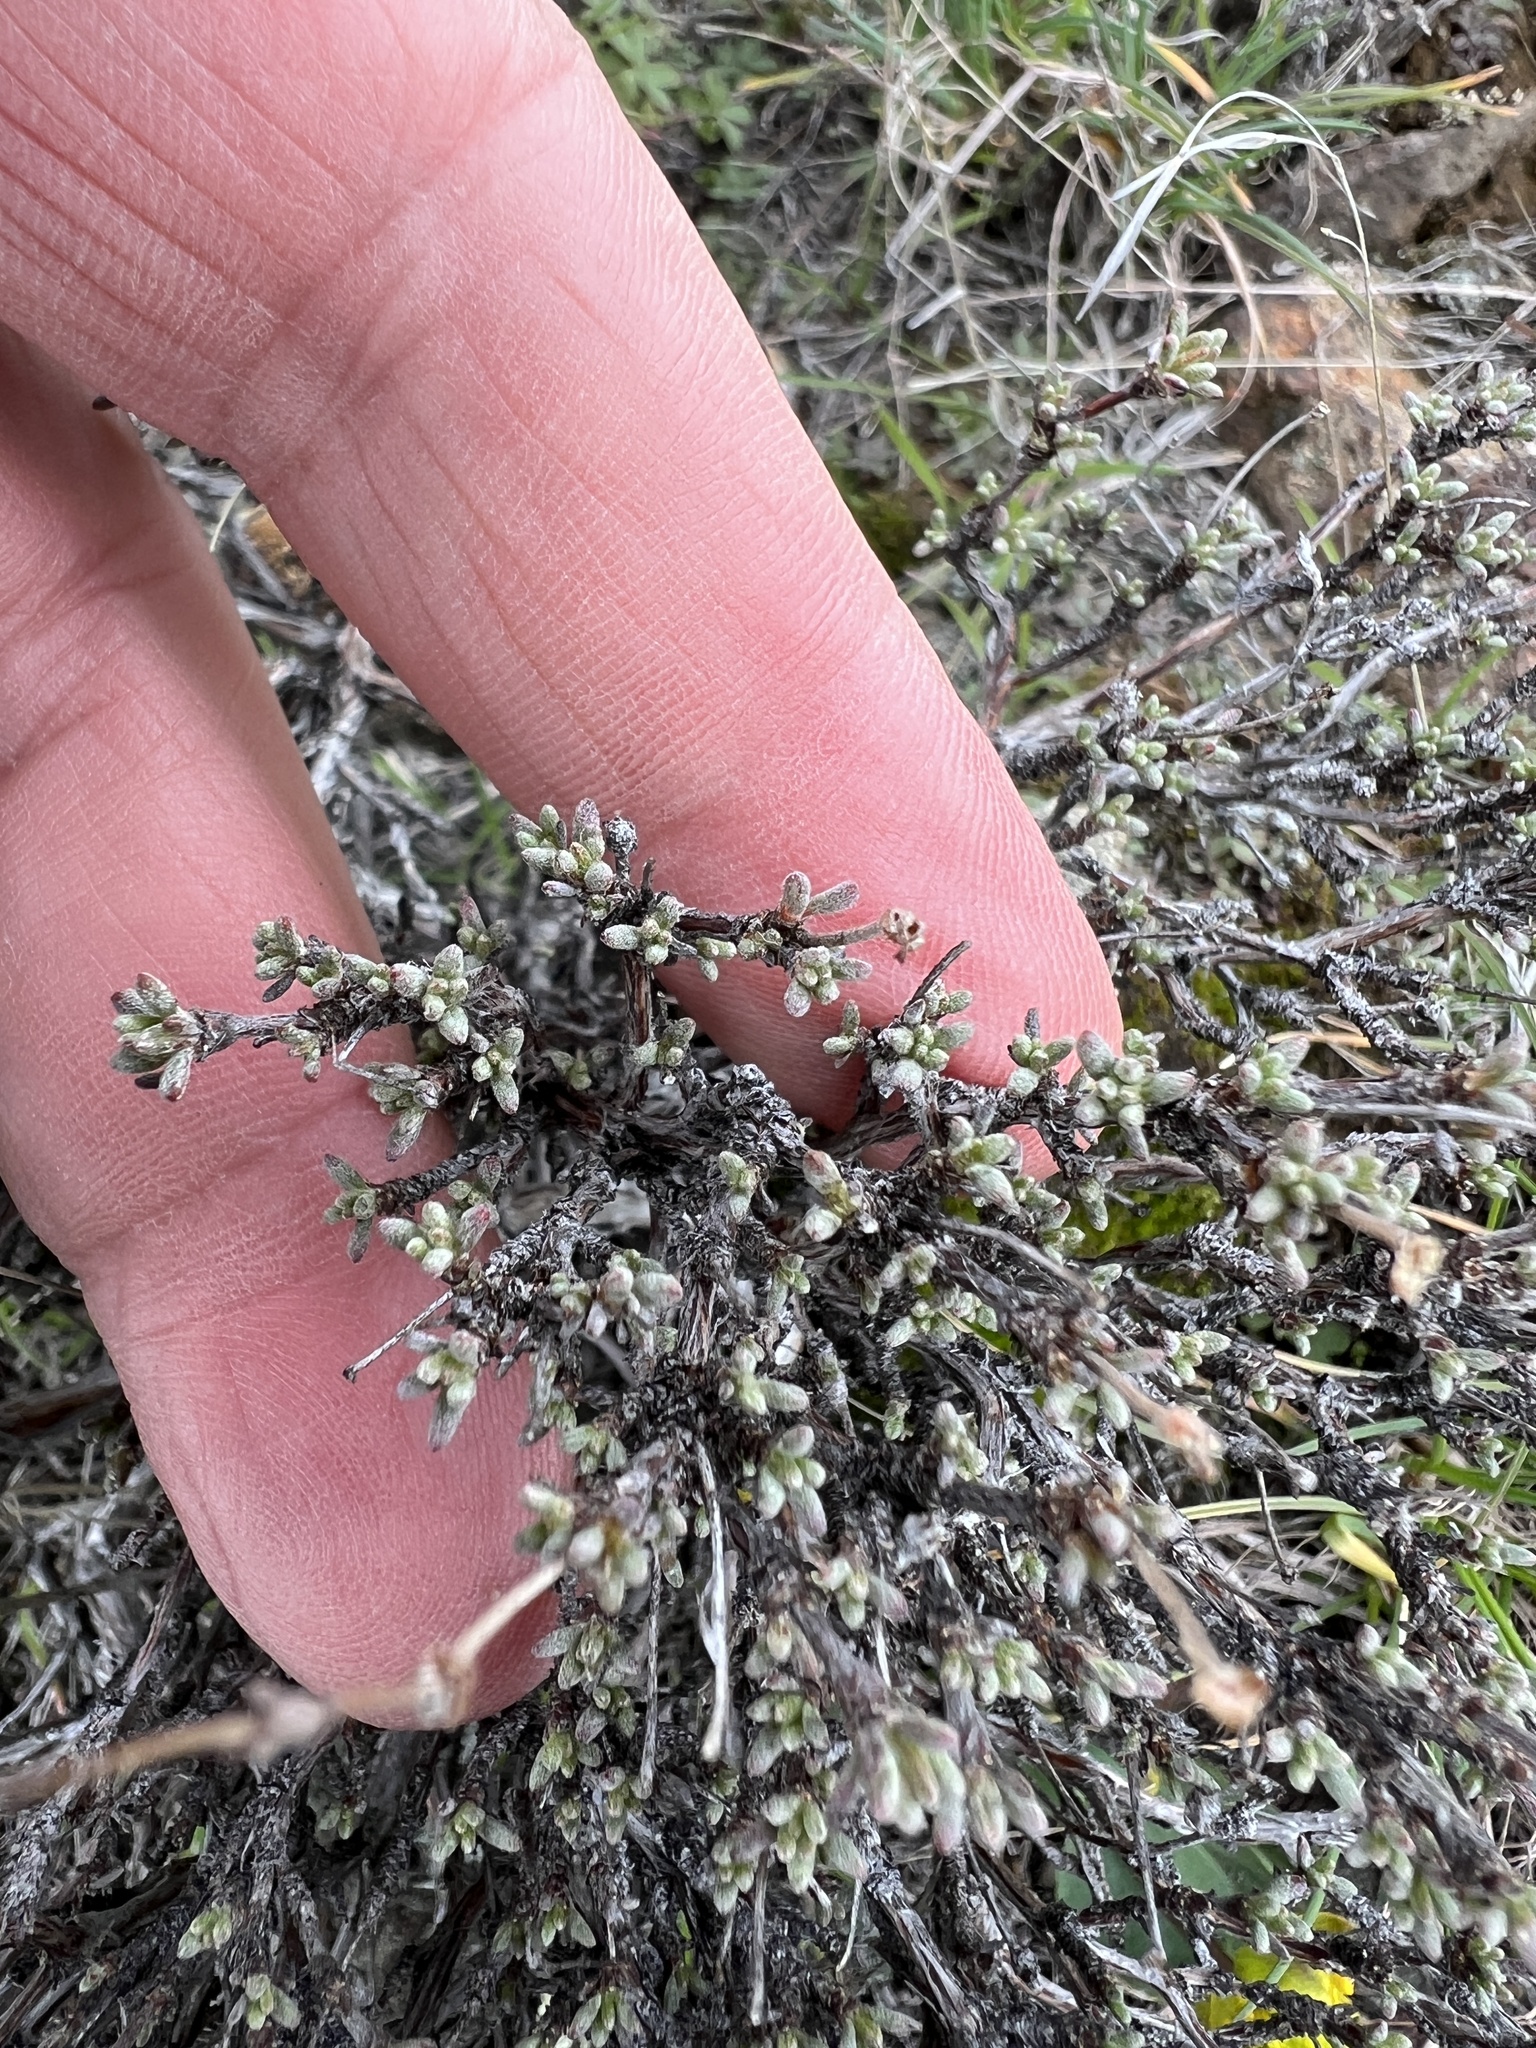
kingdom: Plantae
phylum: Tracheophyta
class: Magnoliopsida
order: Caryophyllales
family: Polygonaceae
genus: Eriogonum
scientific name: Eriogonum thymoides
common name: Thyme-leaf wild buckwheat
